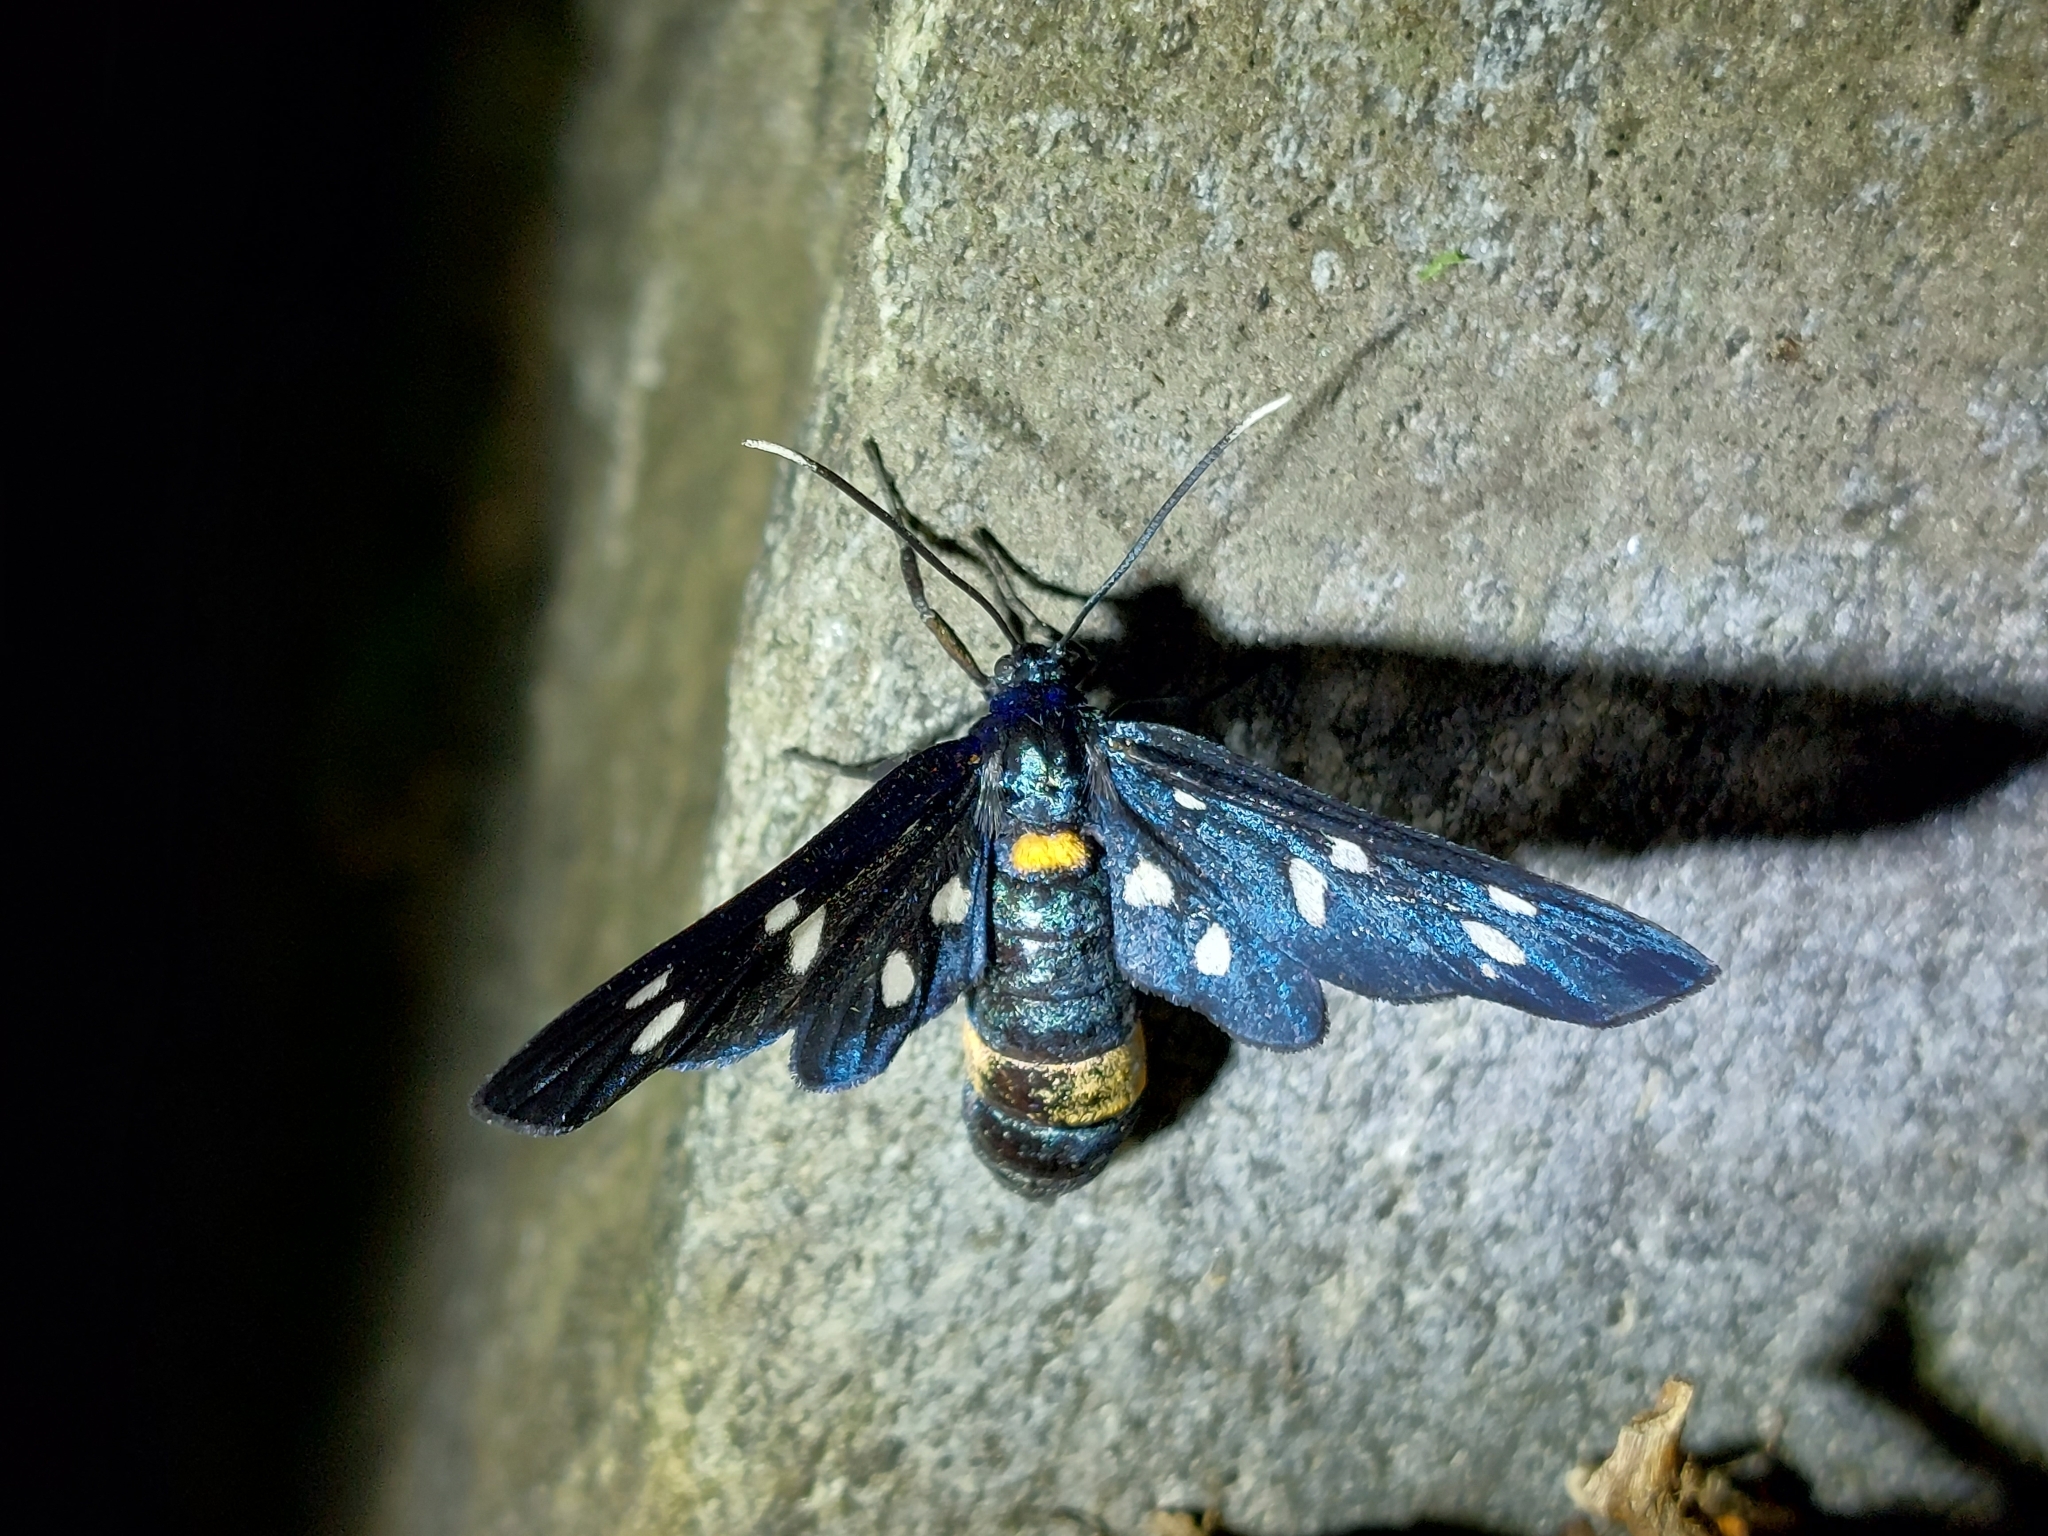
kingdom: Animalia
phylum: Arthropoda
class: Insecta
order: Lepidoptera
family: Erebidae
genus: Amata
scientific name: Amata phegea
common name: Nine-spotted
